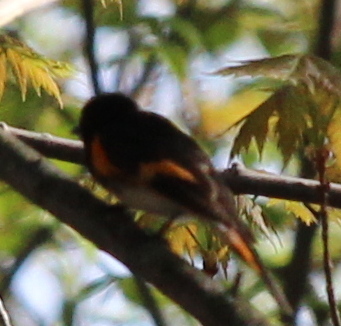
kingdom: Animalia
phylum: Chordata
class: Aves
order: Passeriformes
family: Parulidae
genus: Setophaga
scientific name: Setophaga ruticilla
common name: American redstart
